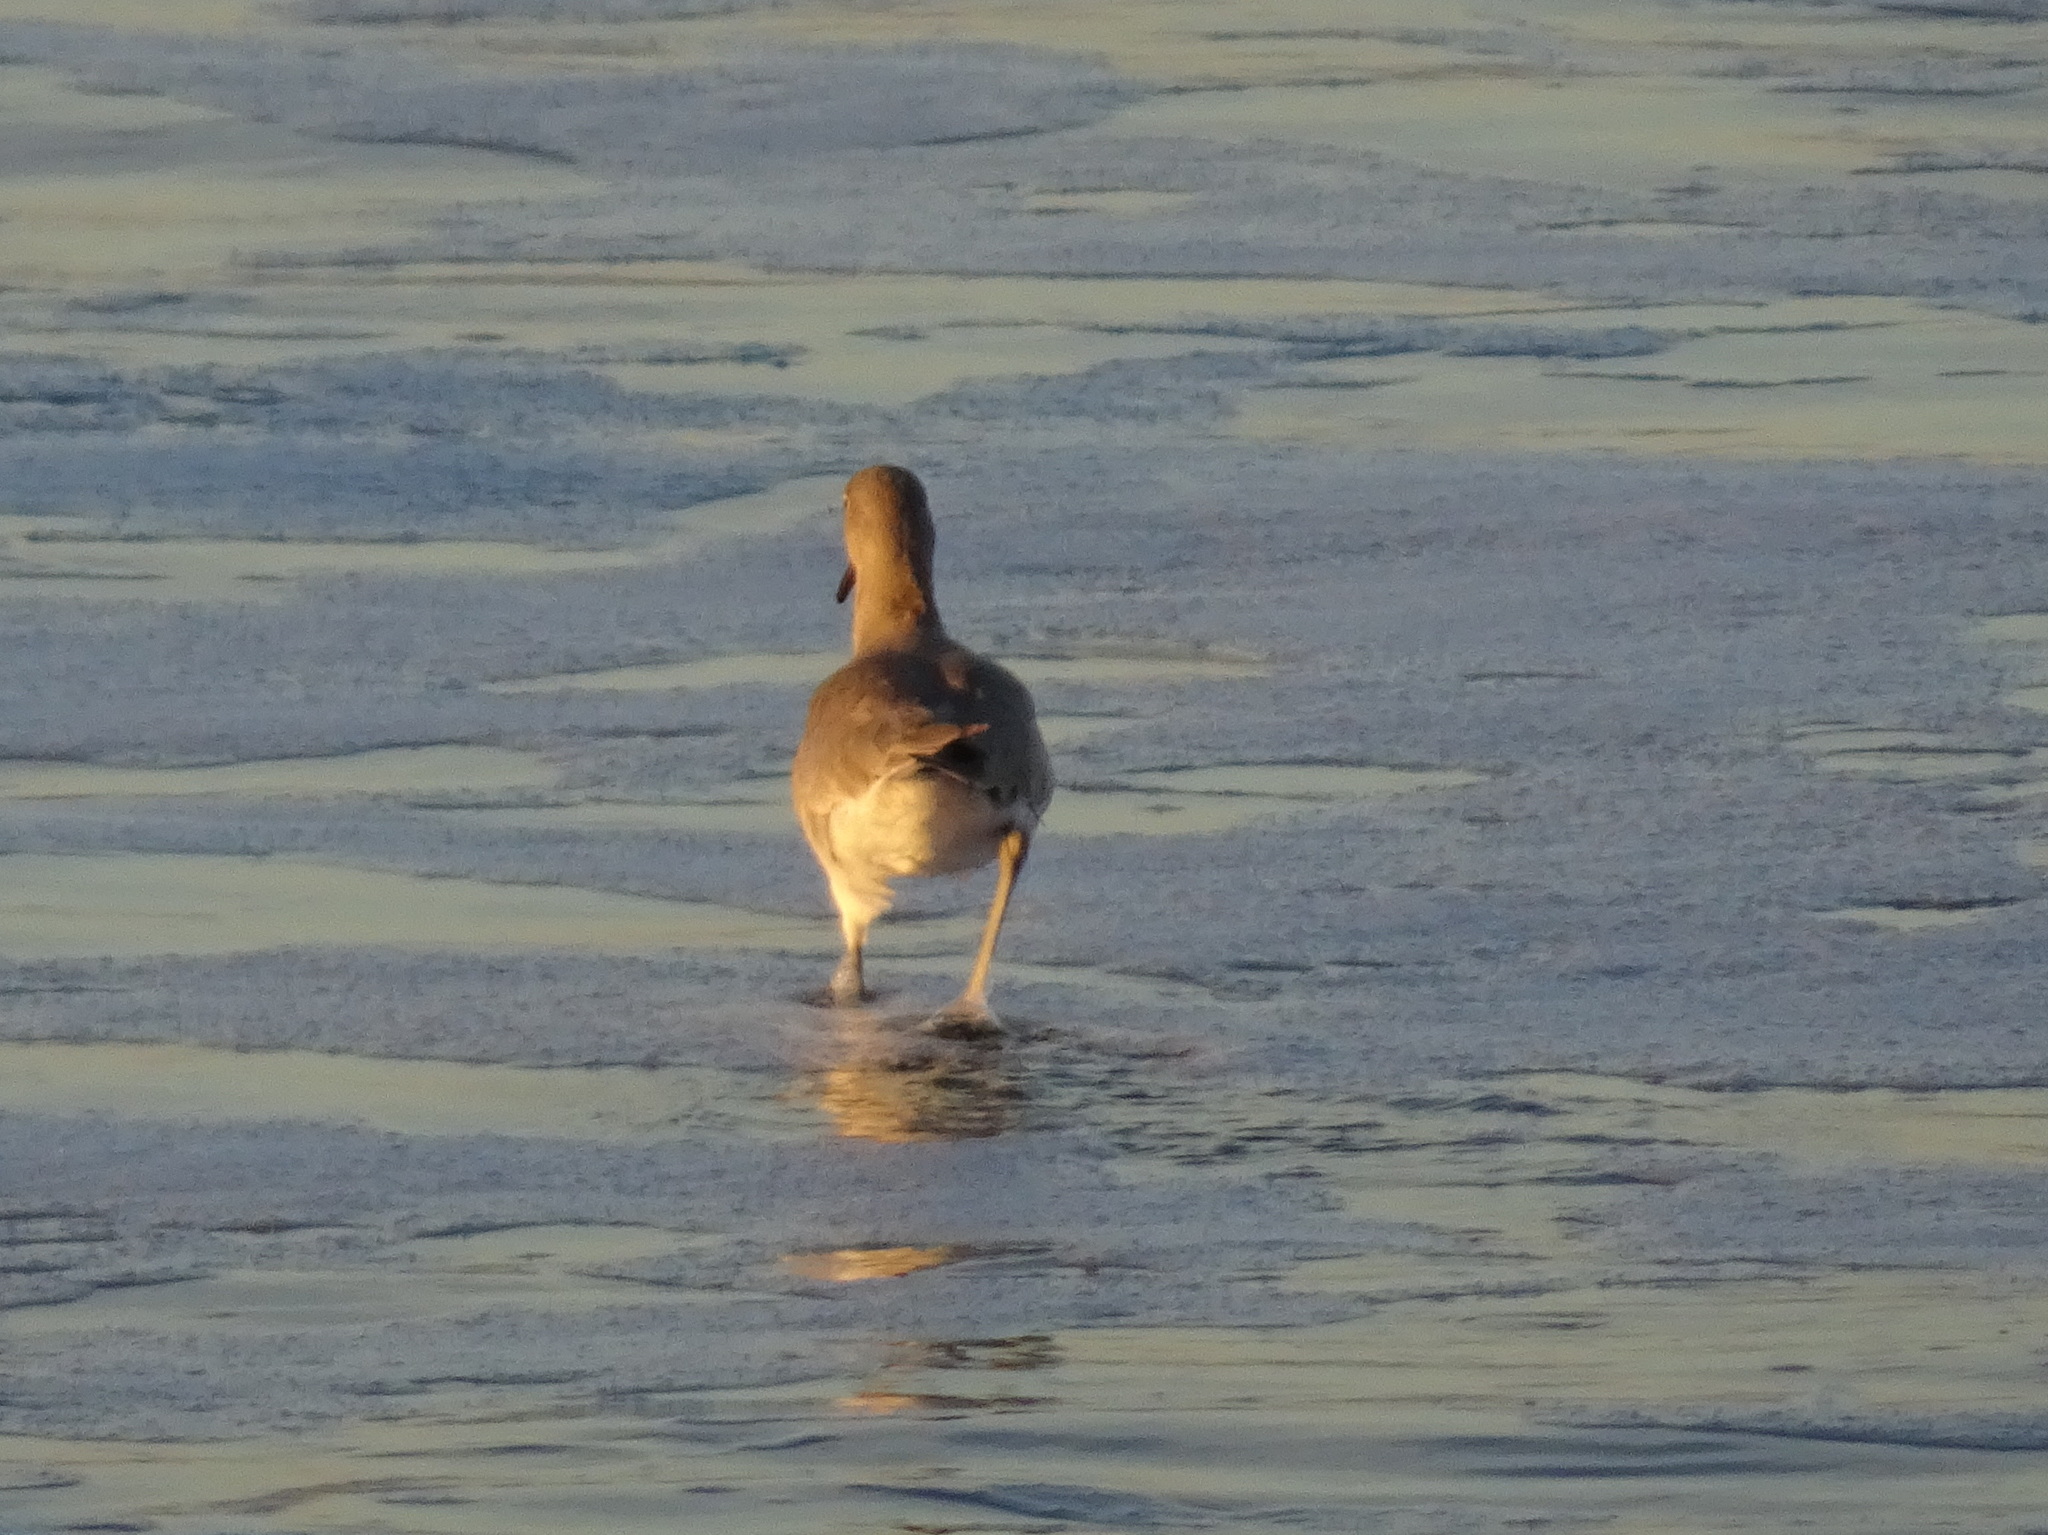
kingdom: Animalia
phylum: Chordata
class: Aves
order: Charadriiformes
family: Scolopacidae
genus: Tringa
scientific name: Tringa semipalmata
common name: Willet
